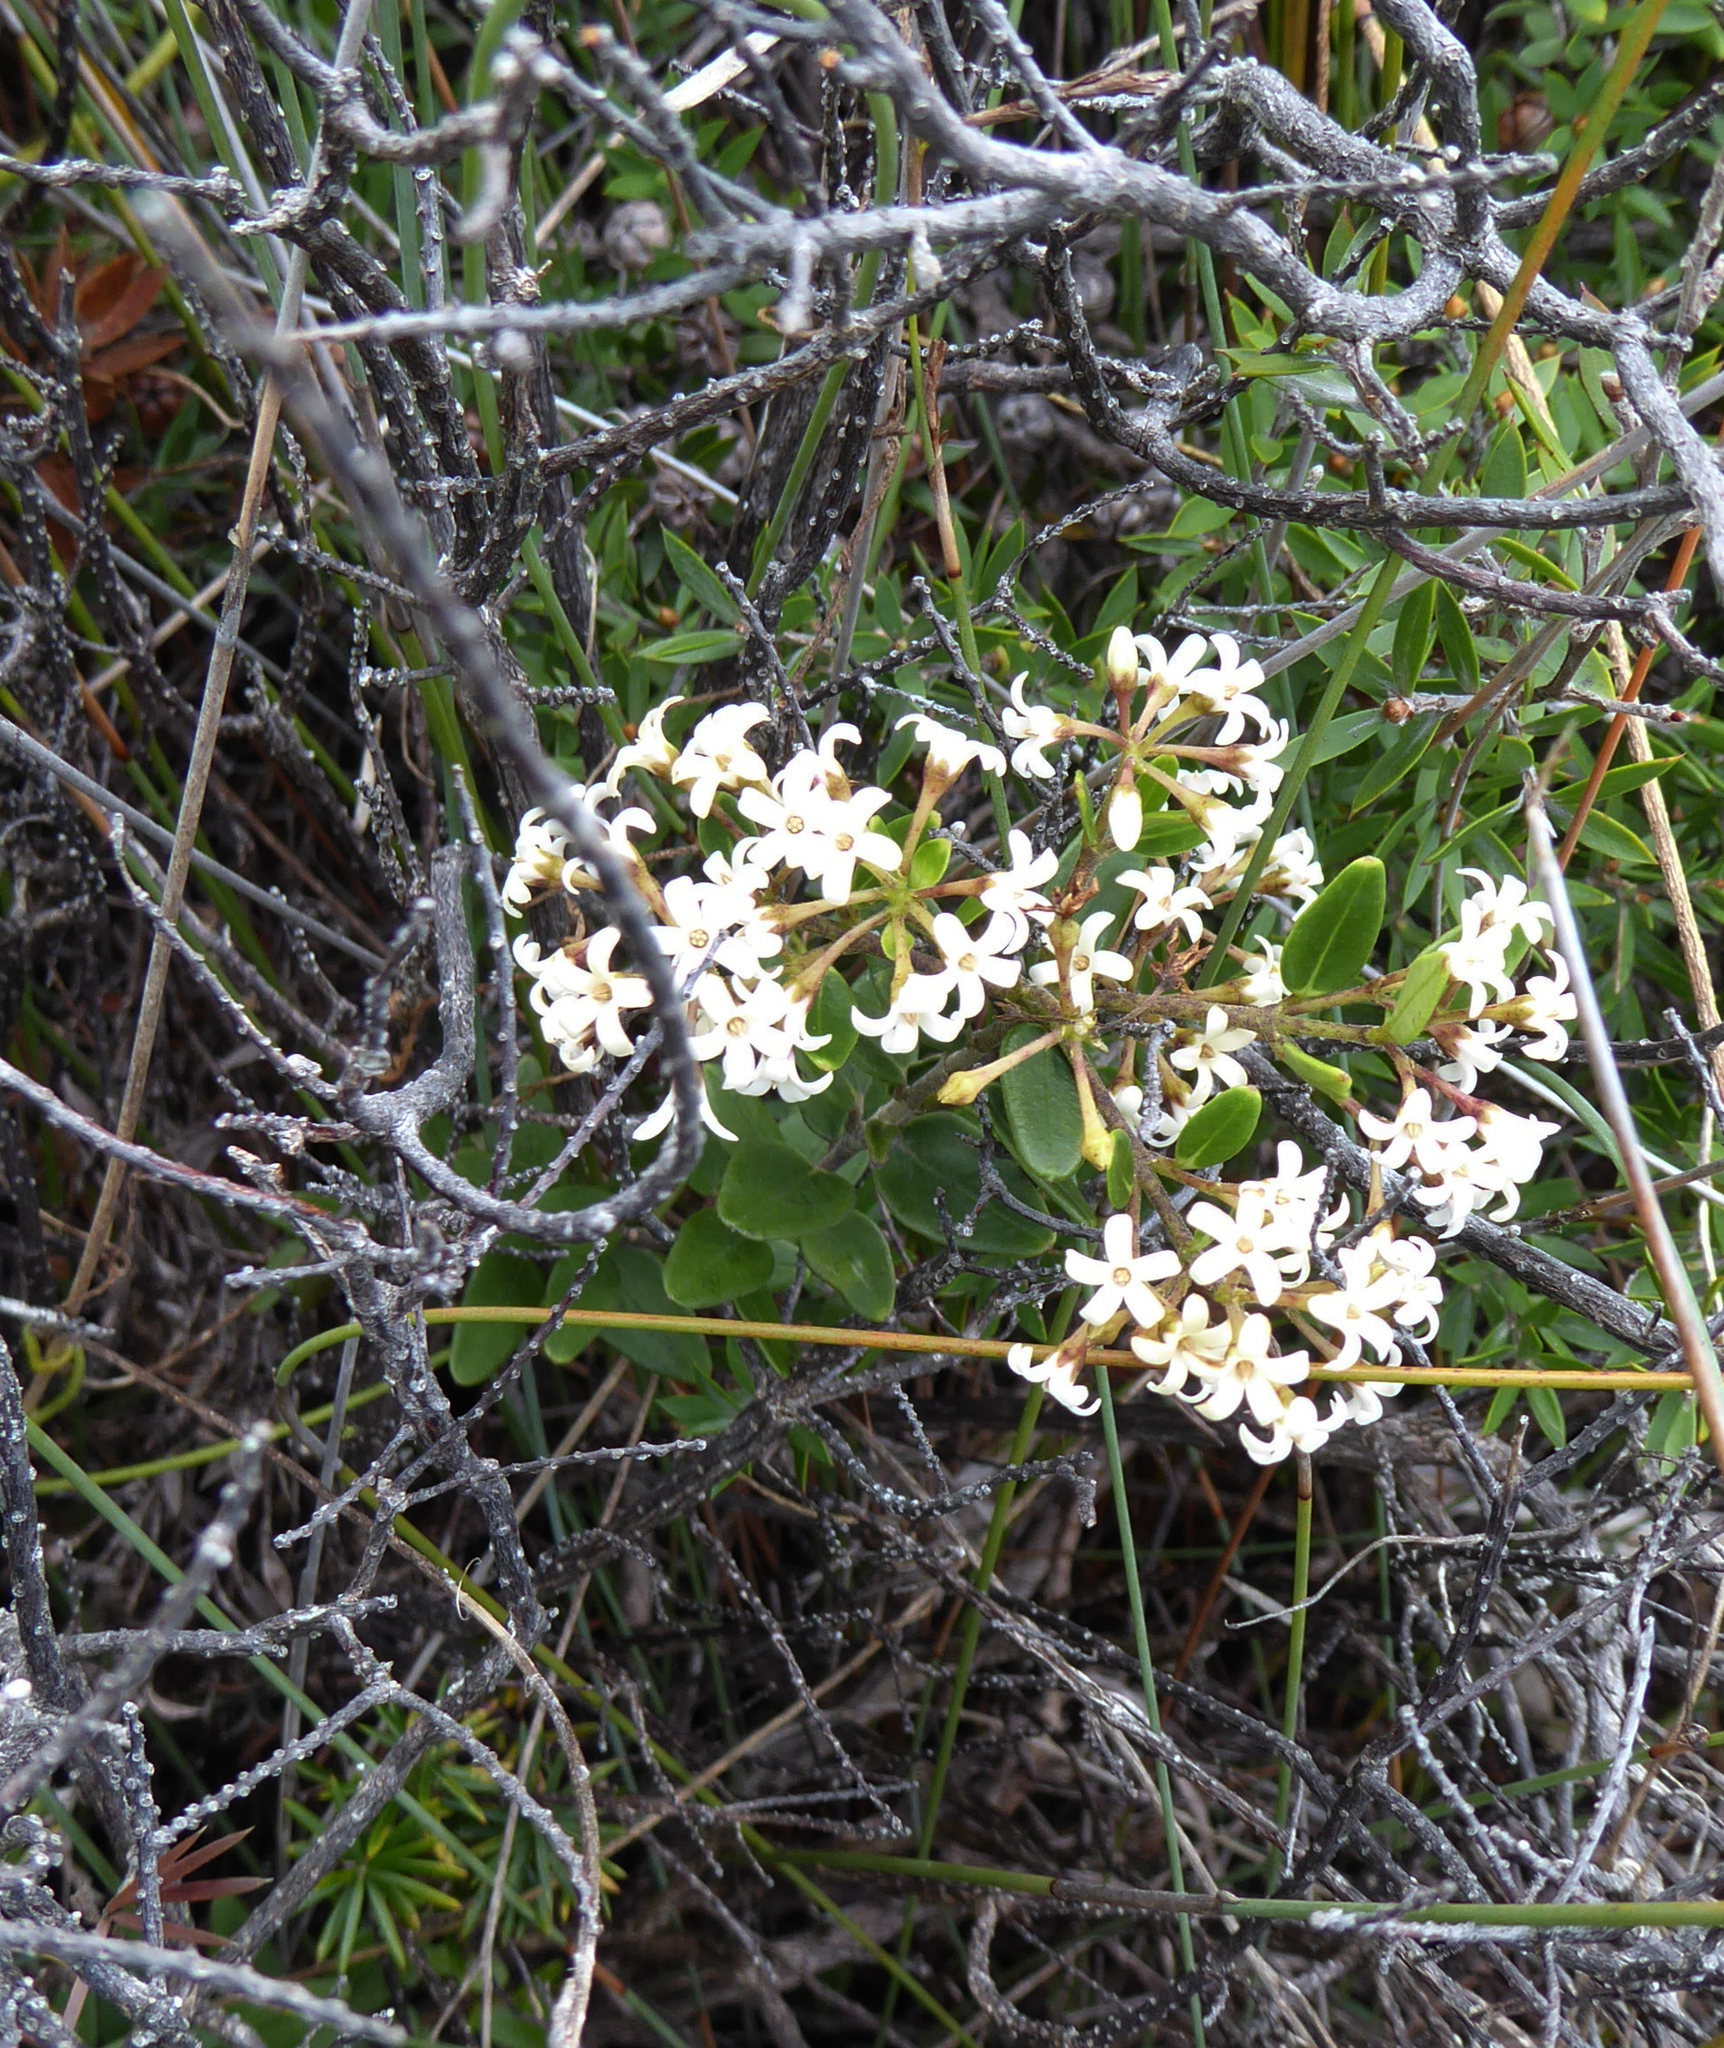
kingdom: Plantae
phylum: Tracheophyta
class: Magnoliopsida
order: Gentianales
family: Apocynaceae
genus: Parsonsia
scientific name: Parsonsia praeruptis
